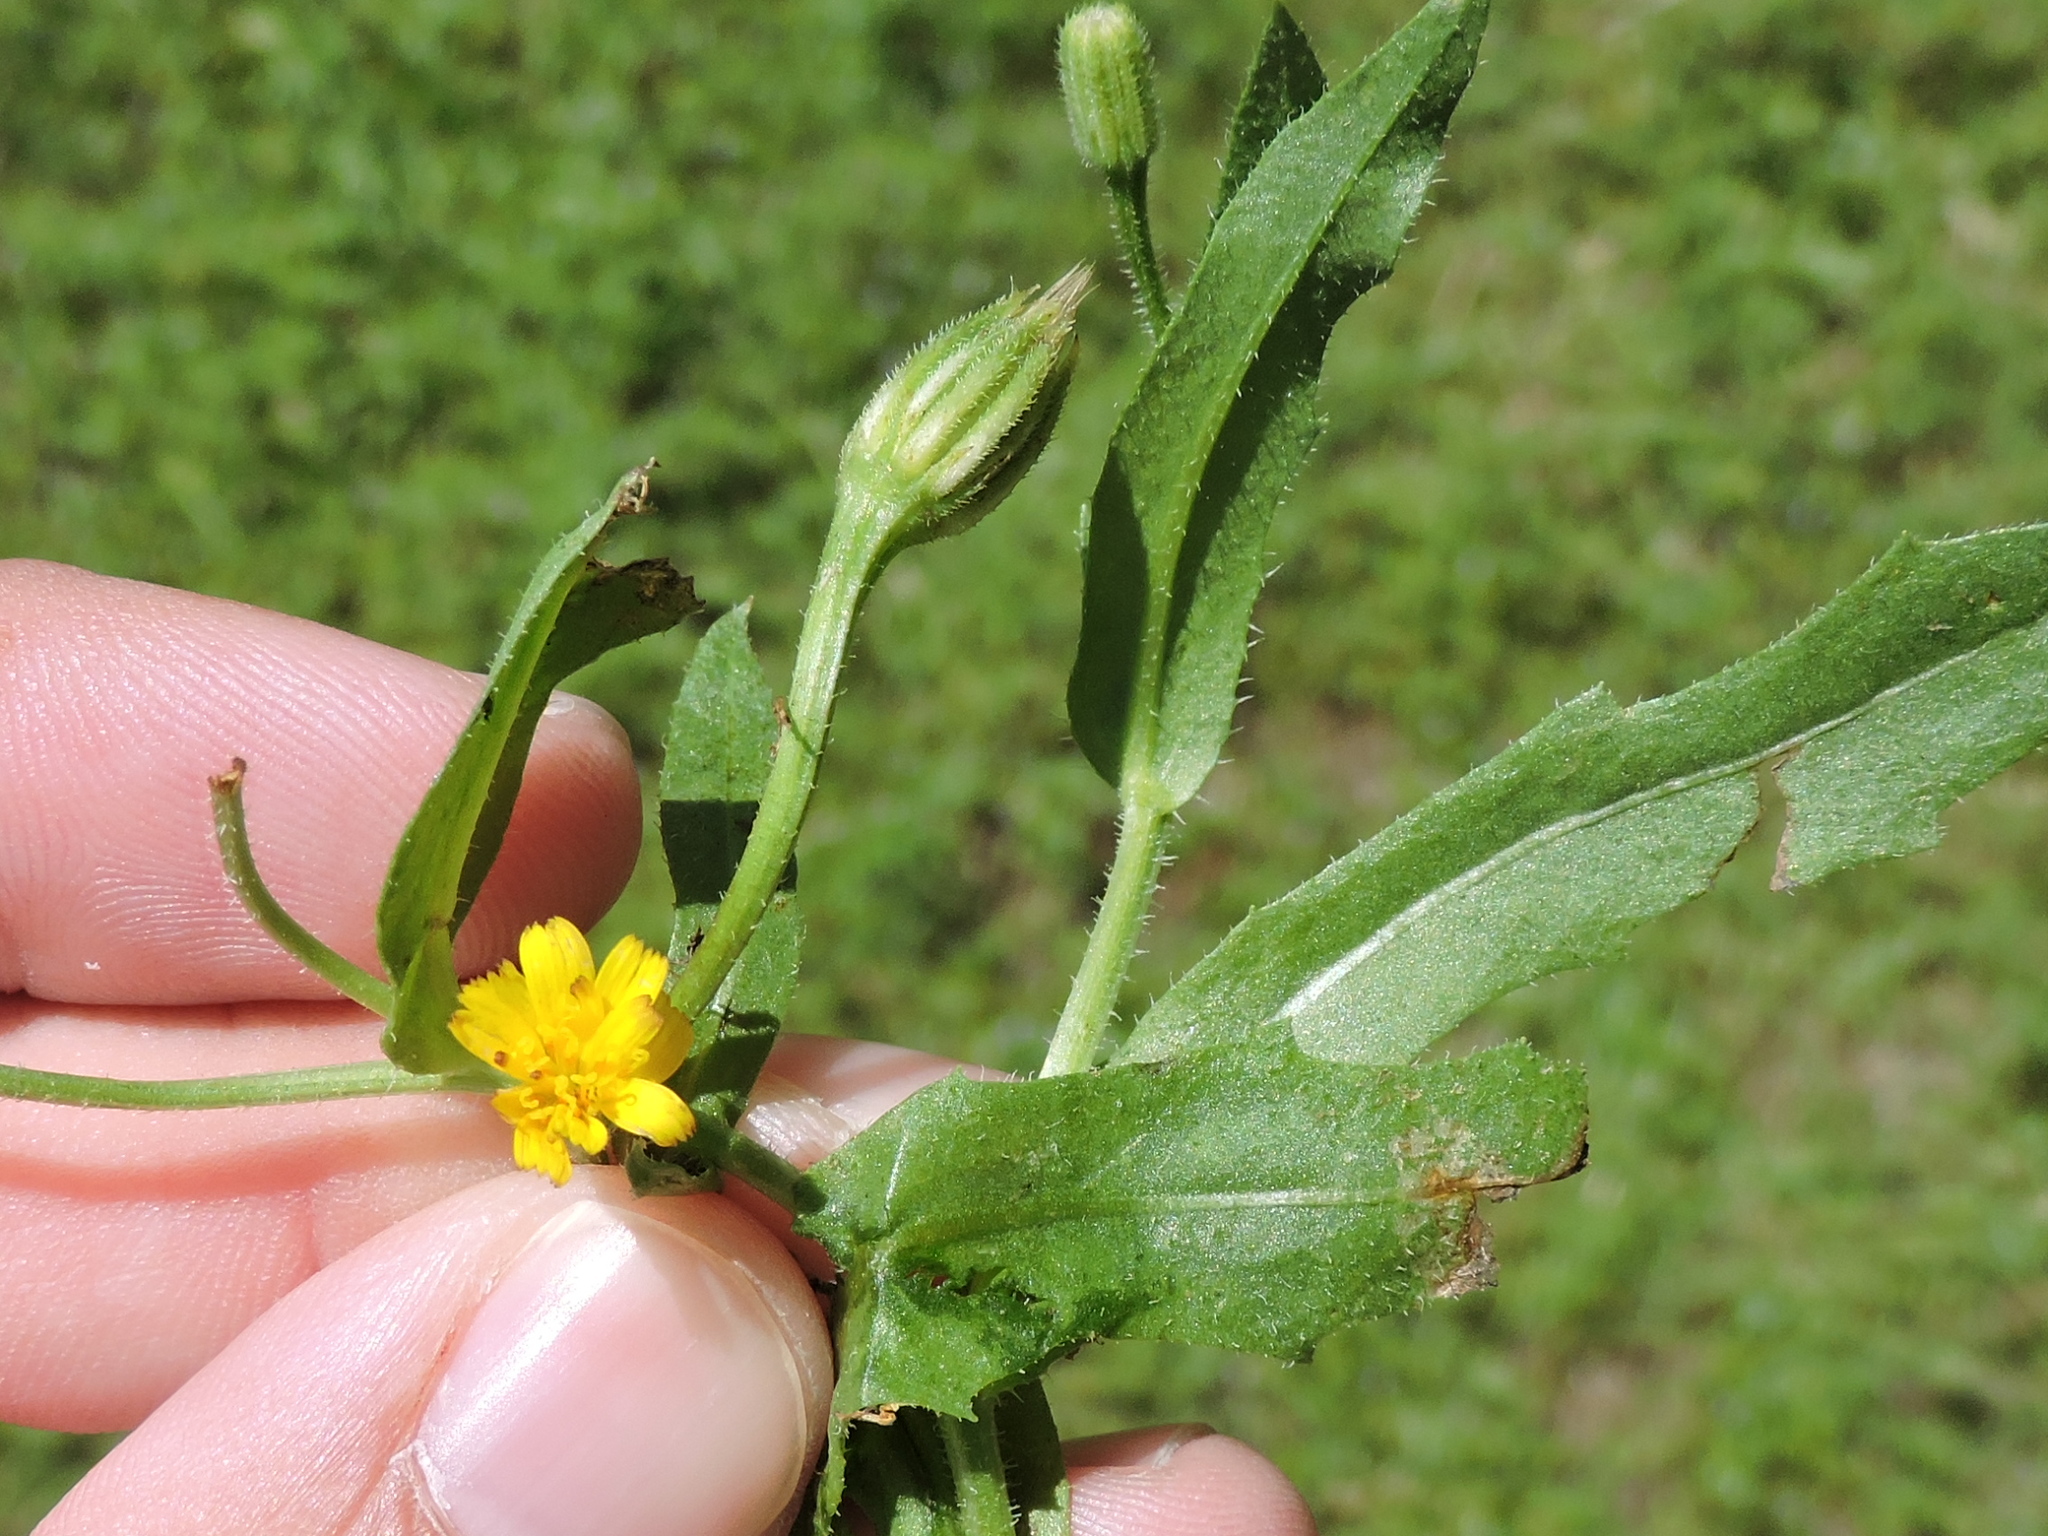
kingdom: Plantae
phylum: Tracheophyta
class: Magnoliopsida
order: Asterales
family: Asteraceae
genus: Hedypnois
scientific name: Hedypnois rhagadioloides
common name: Cretan weed
